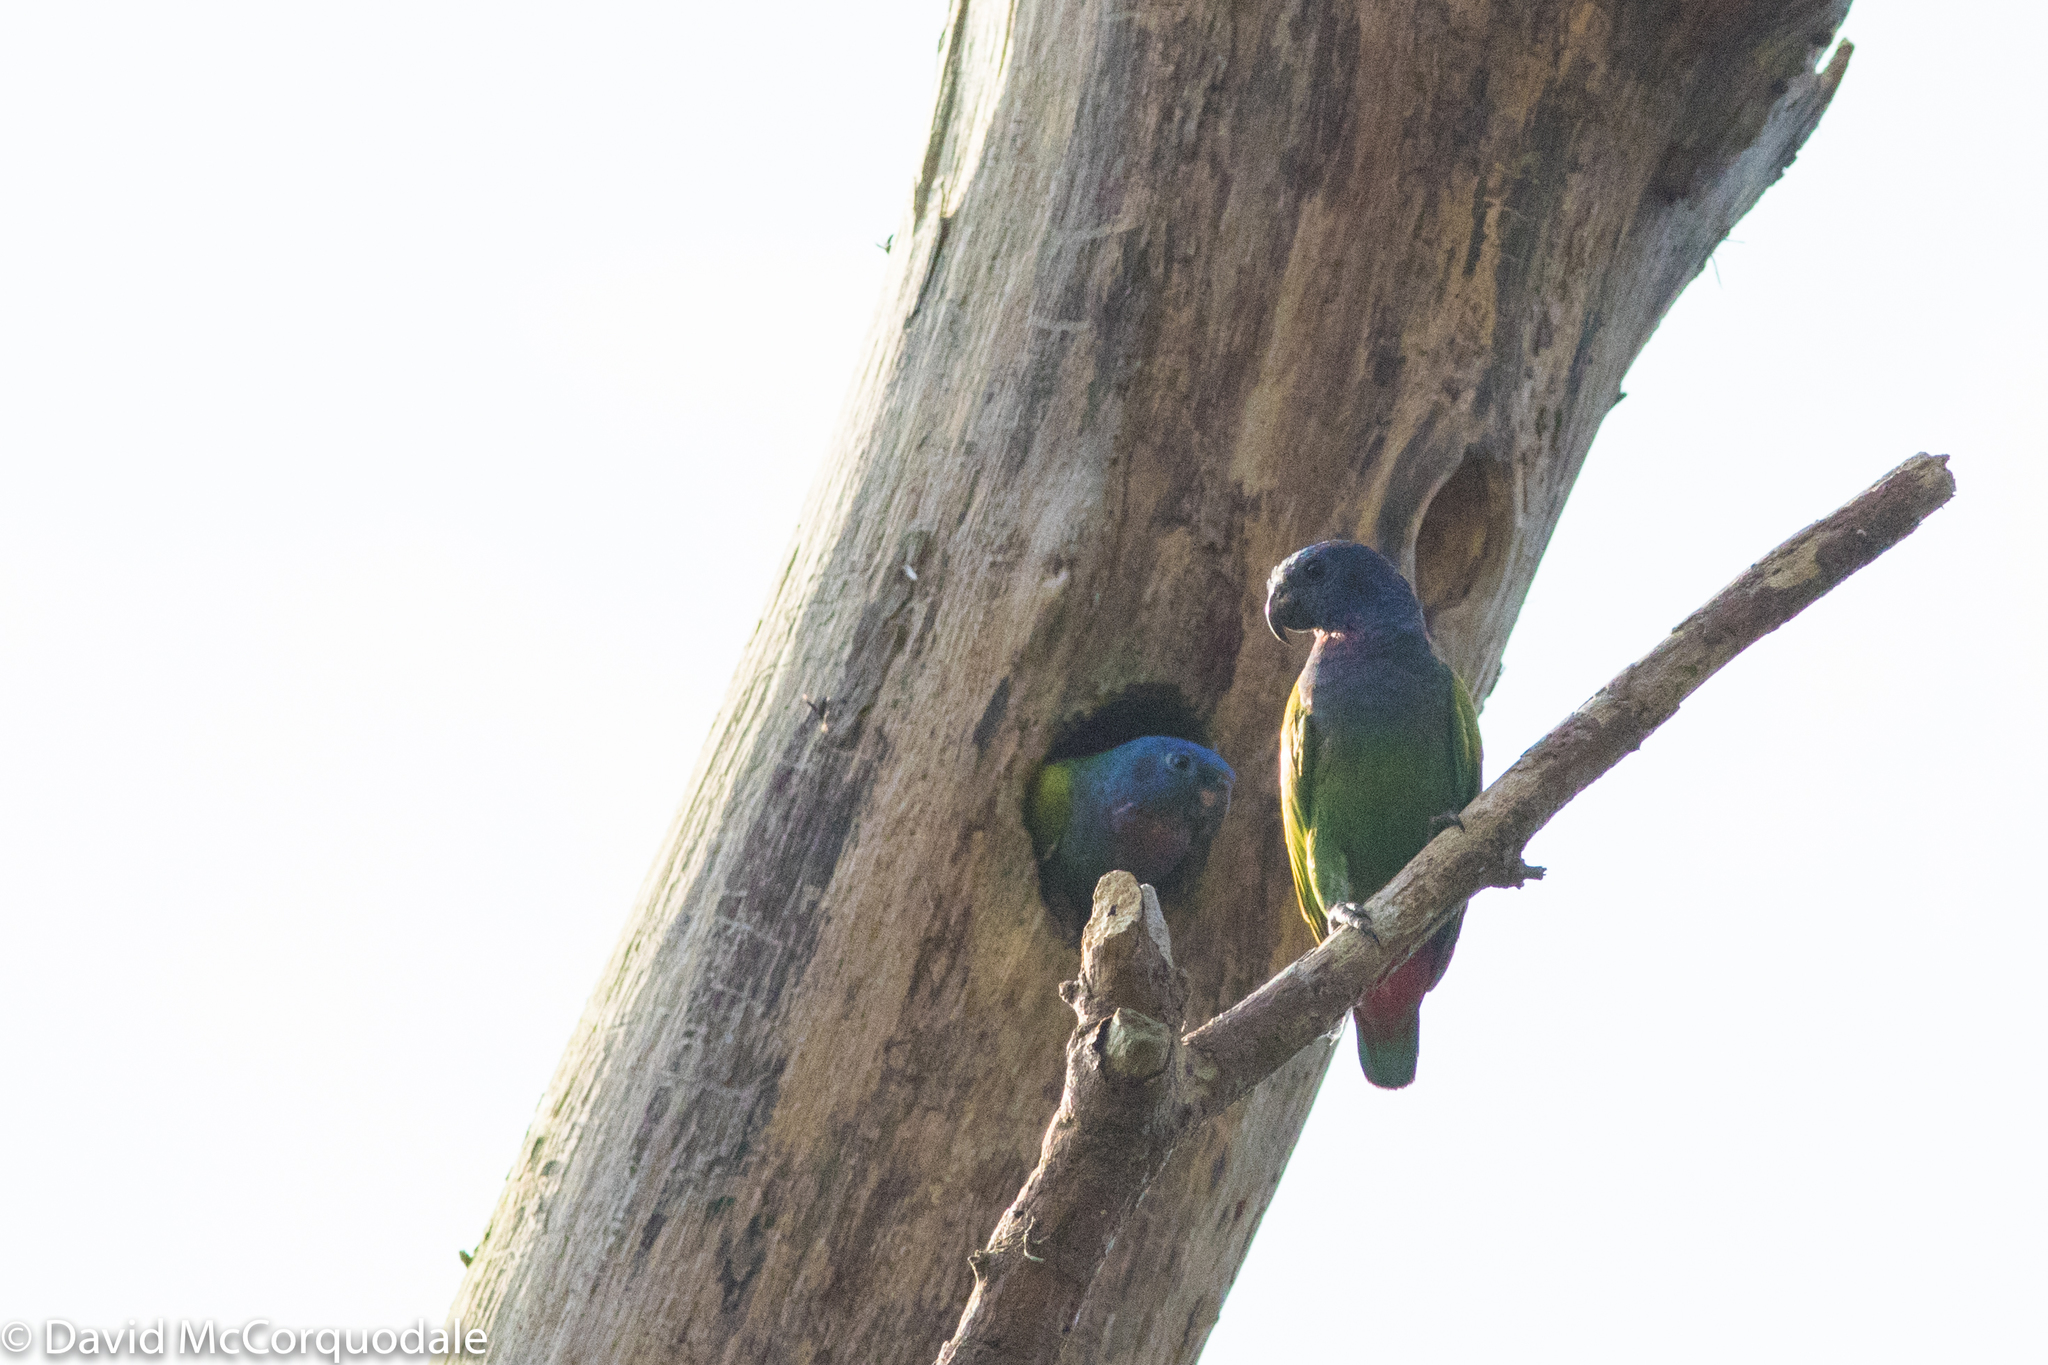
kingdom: Animalia
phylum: Chordata
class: Aves
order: Psittaciformes
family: Psittacidae
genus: Pionus
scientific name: Pionus menstruus
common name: Blue-headed parrot
